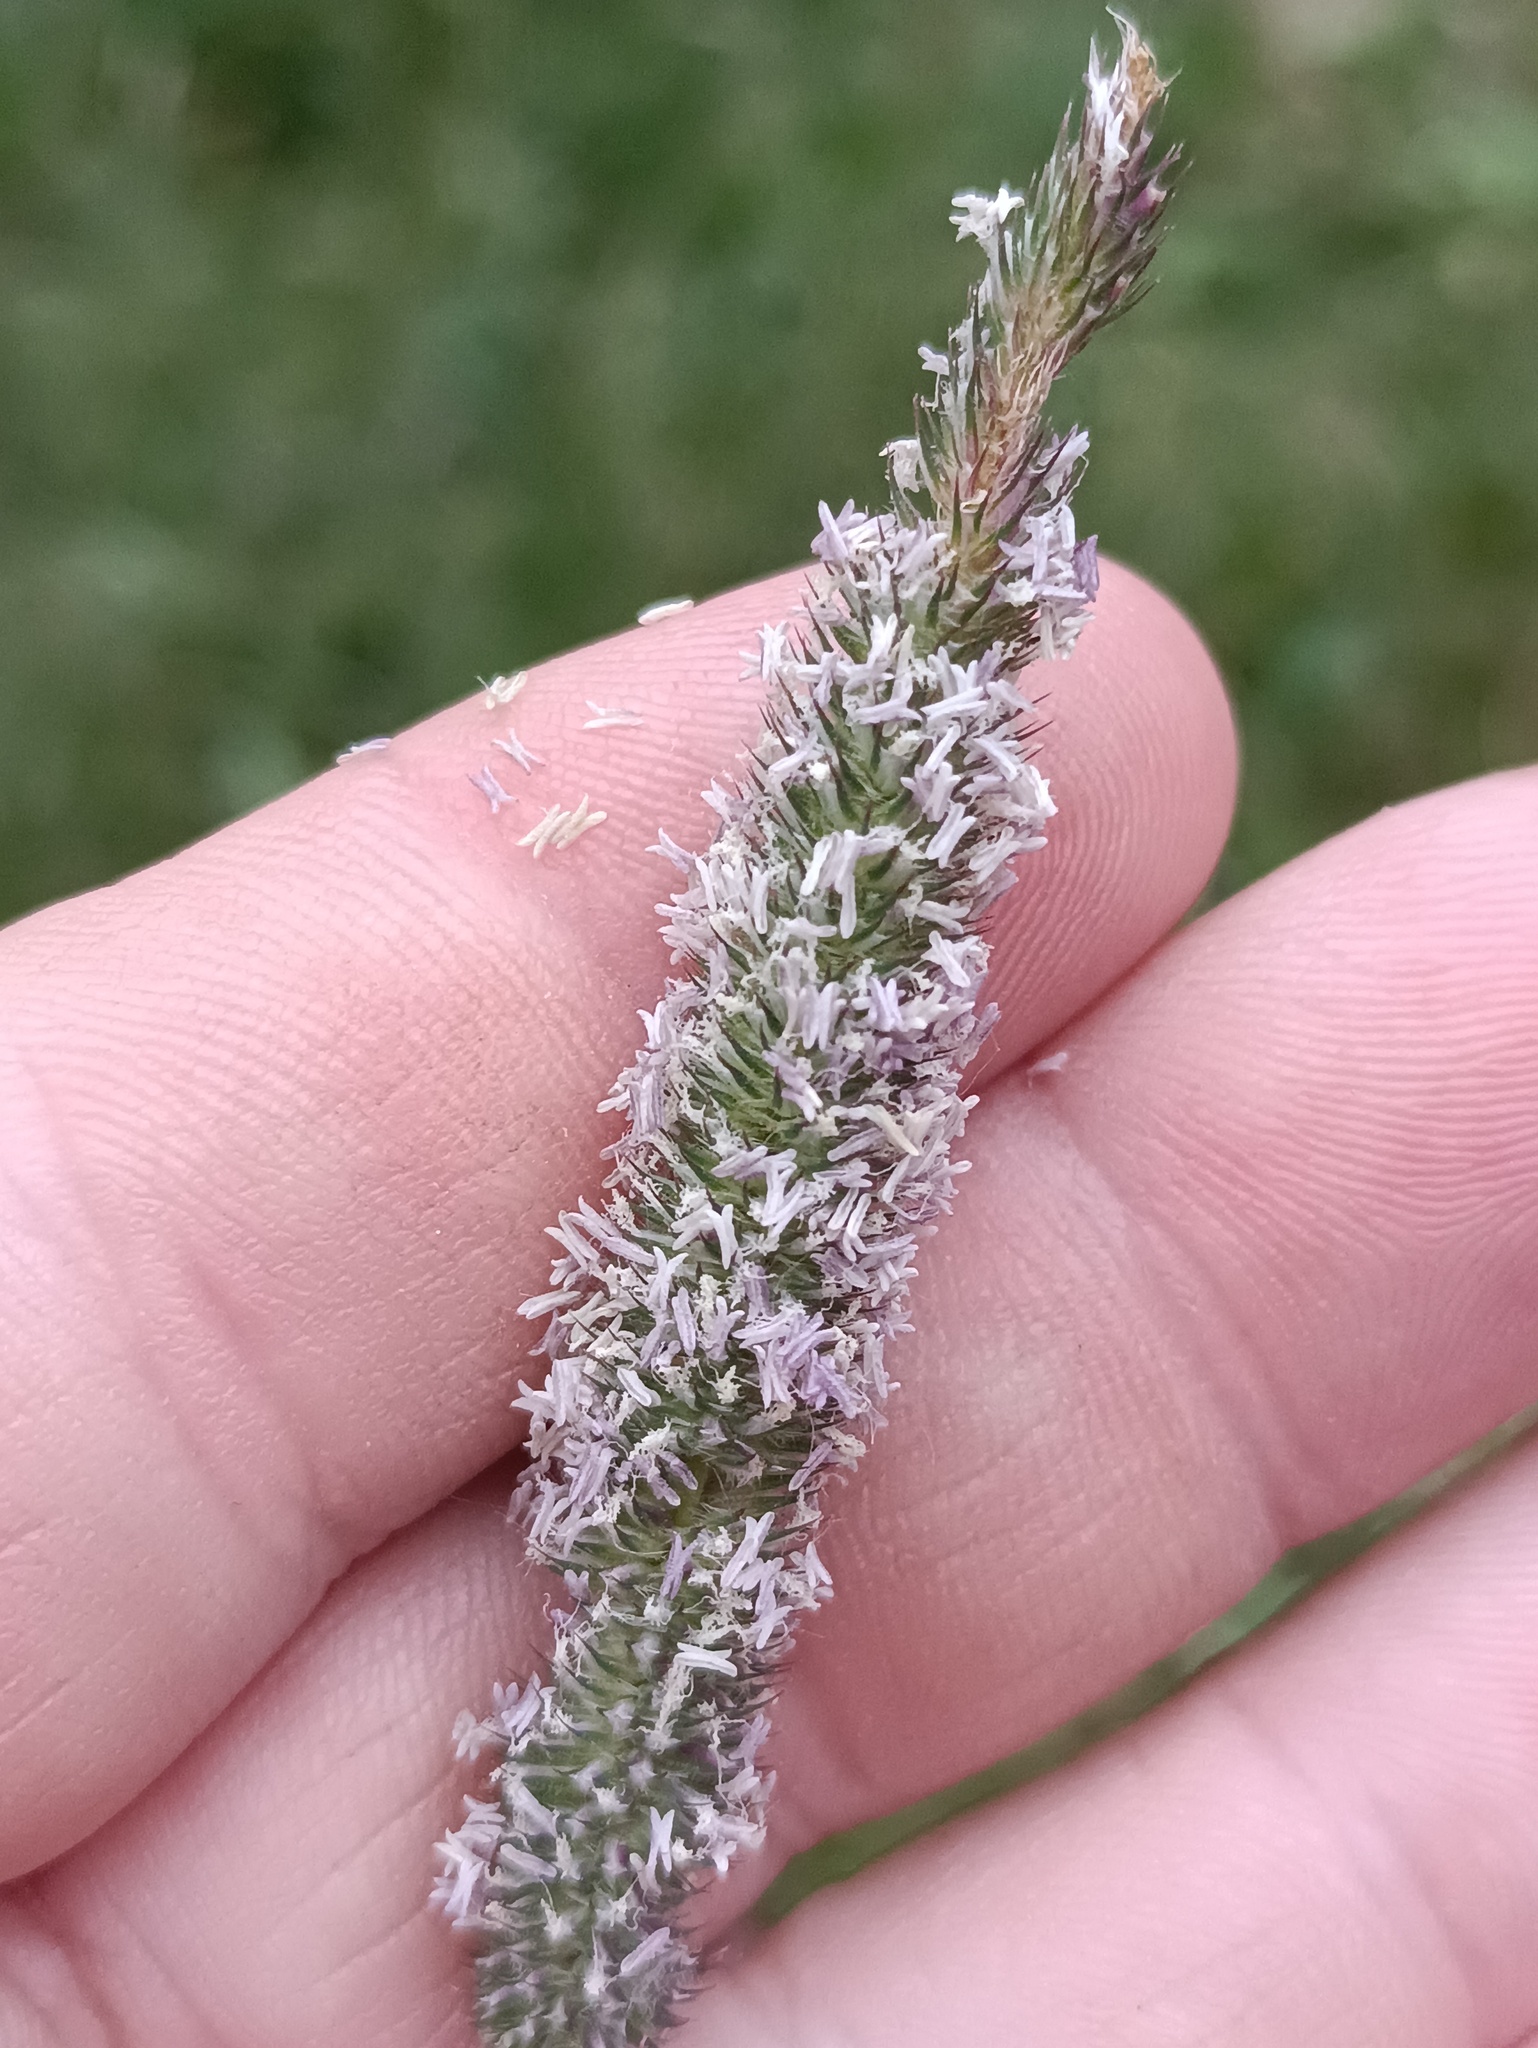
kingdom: Plantae
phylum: Tracheophyta
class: Liliopsida
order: Poales
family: Poaceae
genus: Phleum
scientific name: Phleum pratense
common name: Timothy grass
